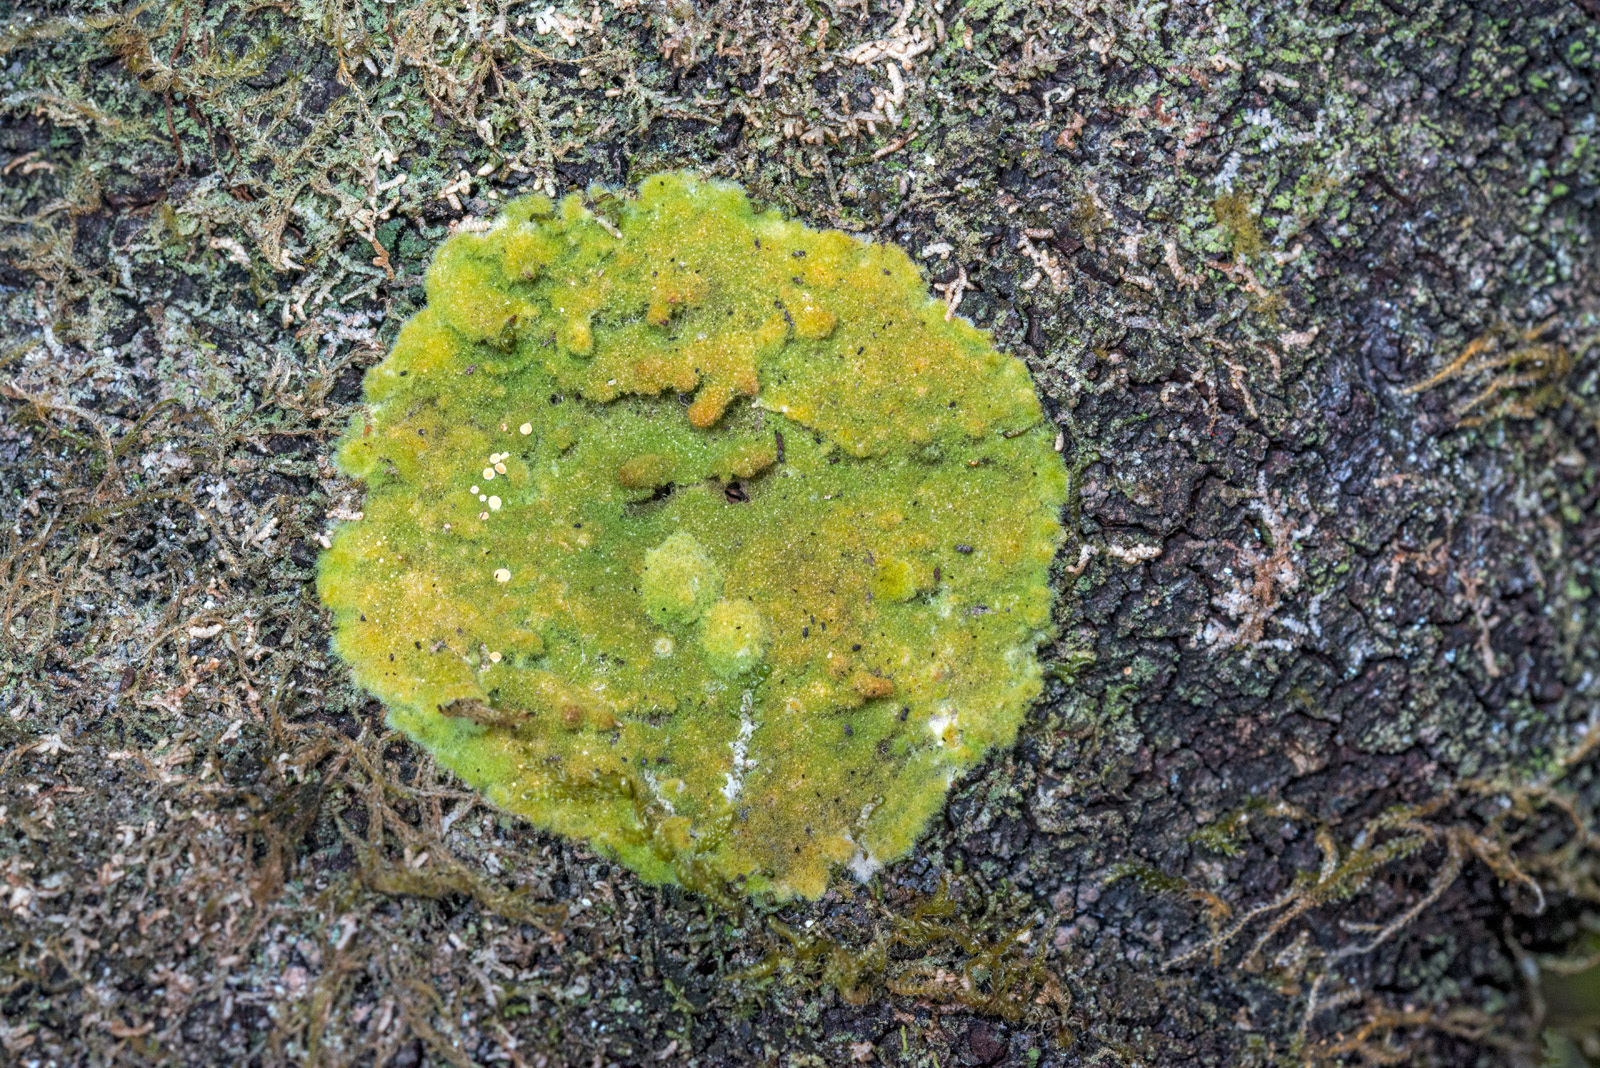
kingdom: Fungi
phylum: Ascomycota
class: Lecanoromycetes
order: Ostropales
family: Coenogoniaceae
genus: Coenogonium
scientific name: Coenogonium implexum
